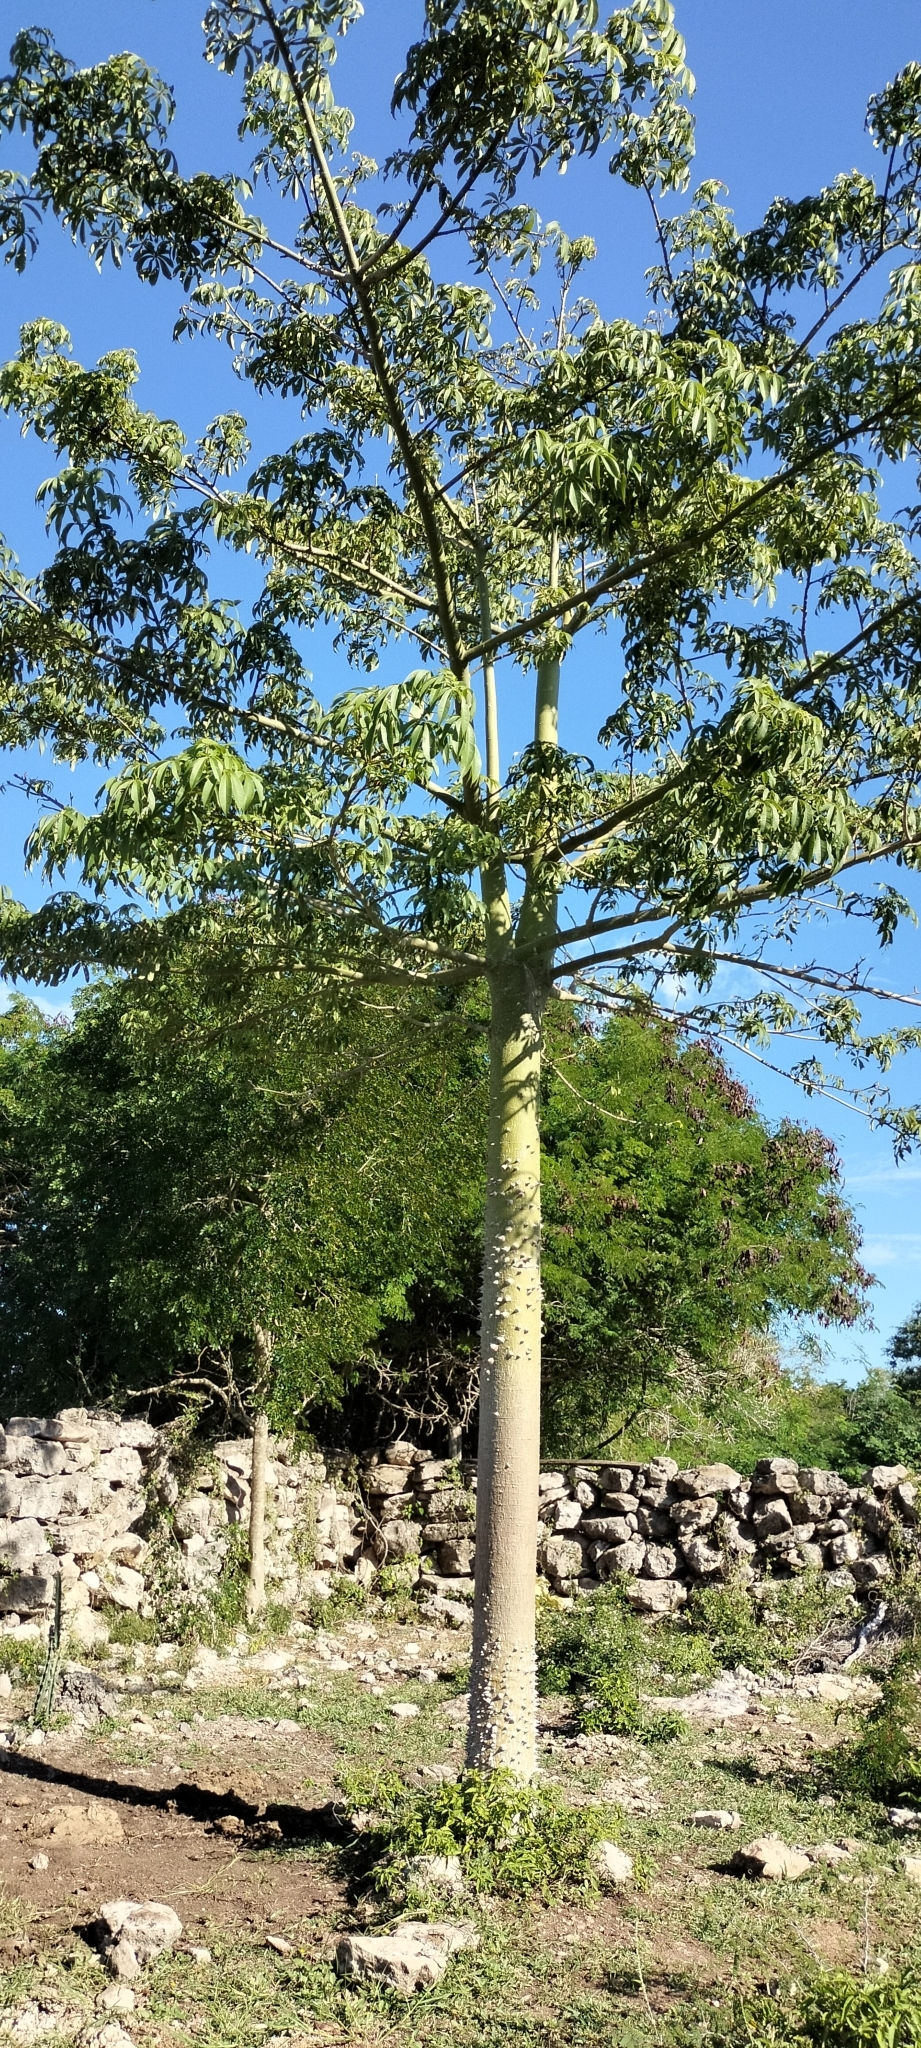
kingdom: Plantae
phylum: Tracheophyta
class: Magnoliopsida
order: Malvales
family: Malvaceae
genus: Ceiba
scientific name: Ceiba pentandra
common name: Kapok
